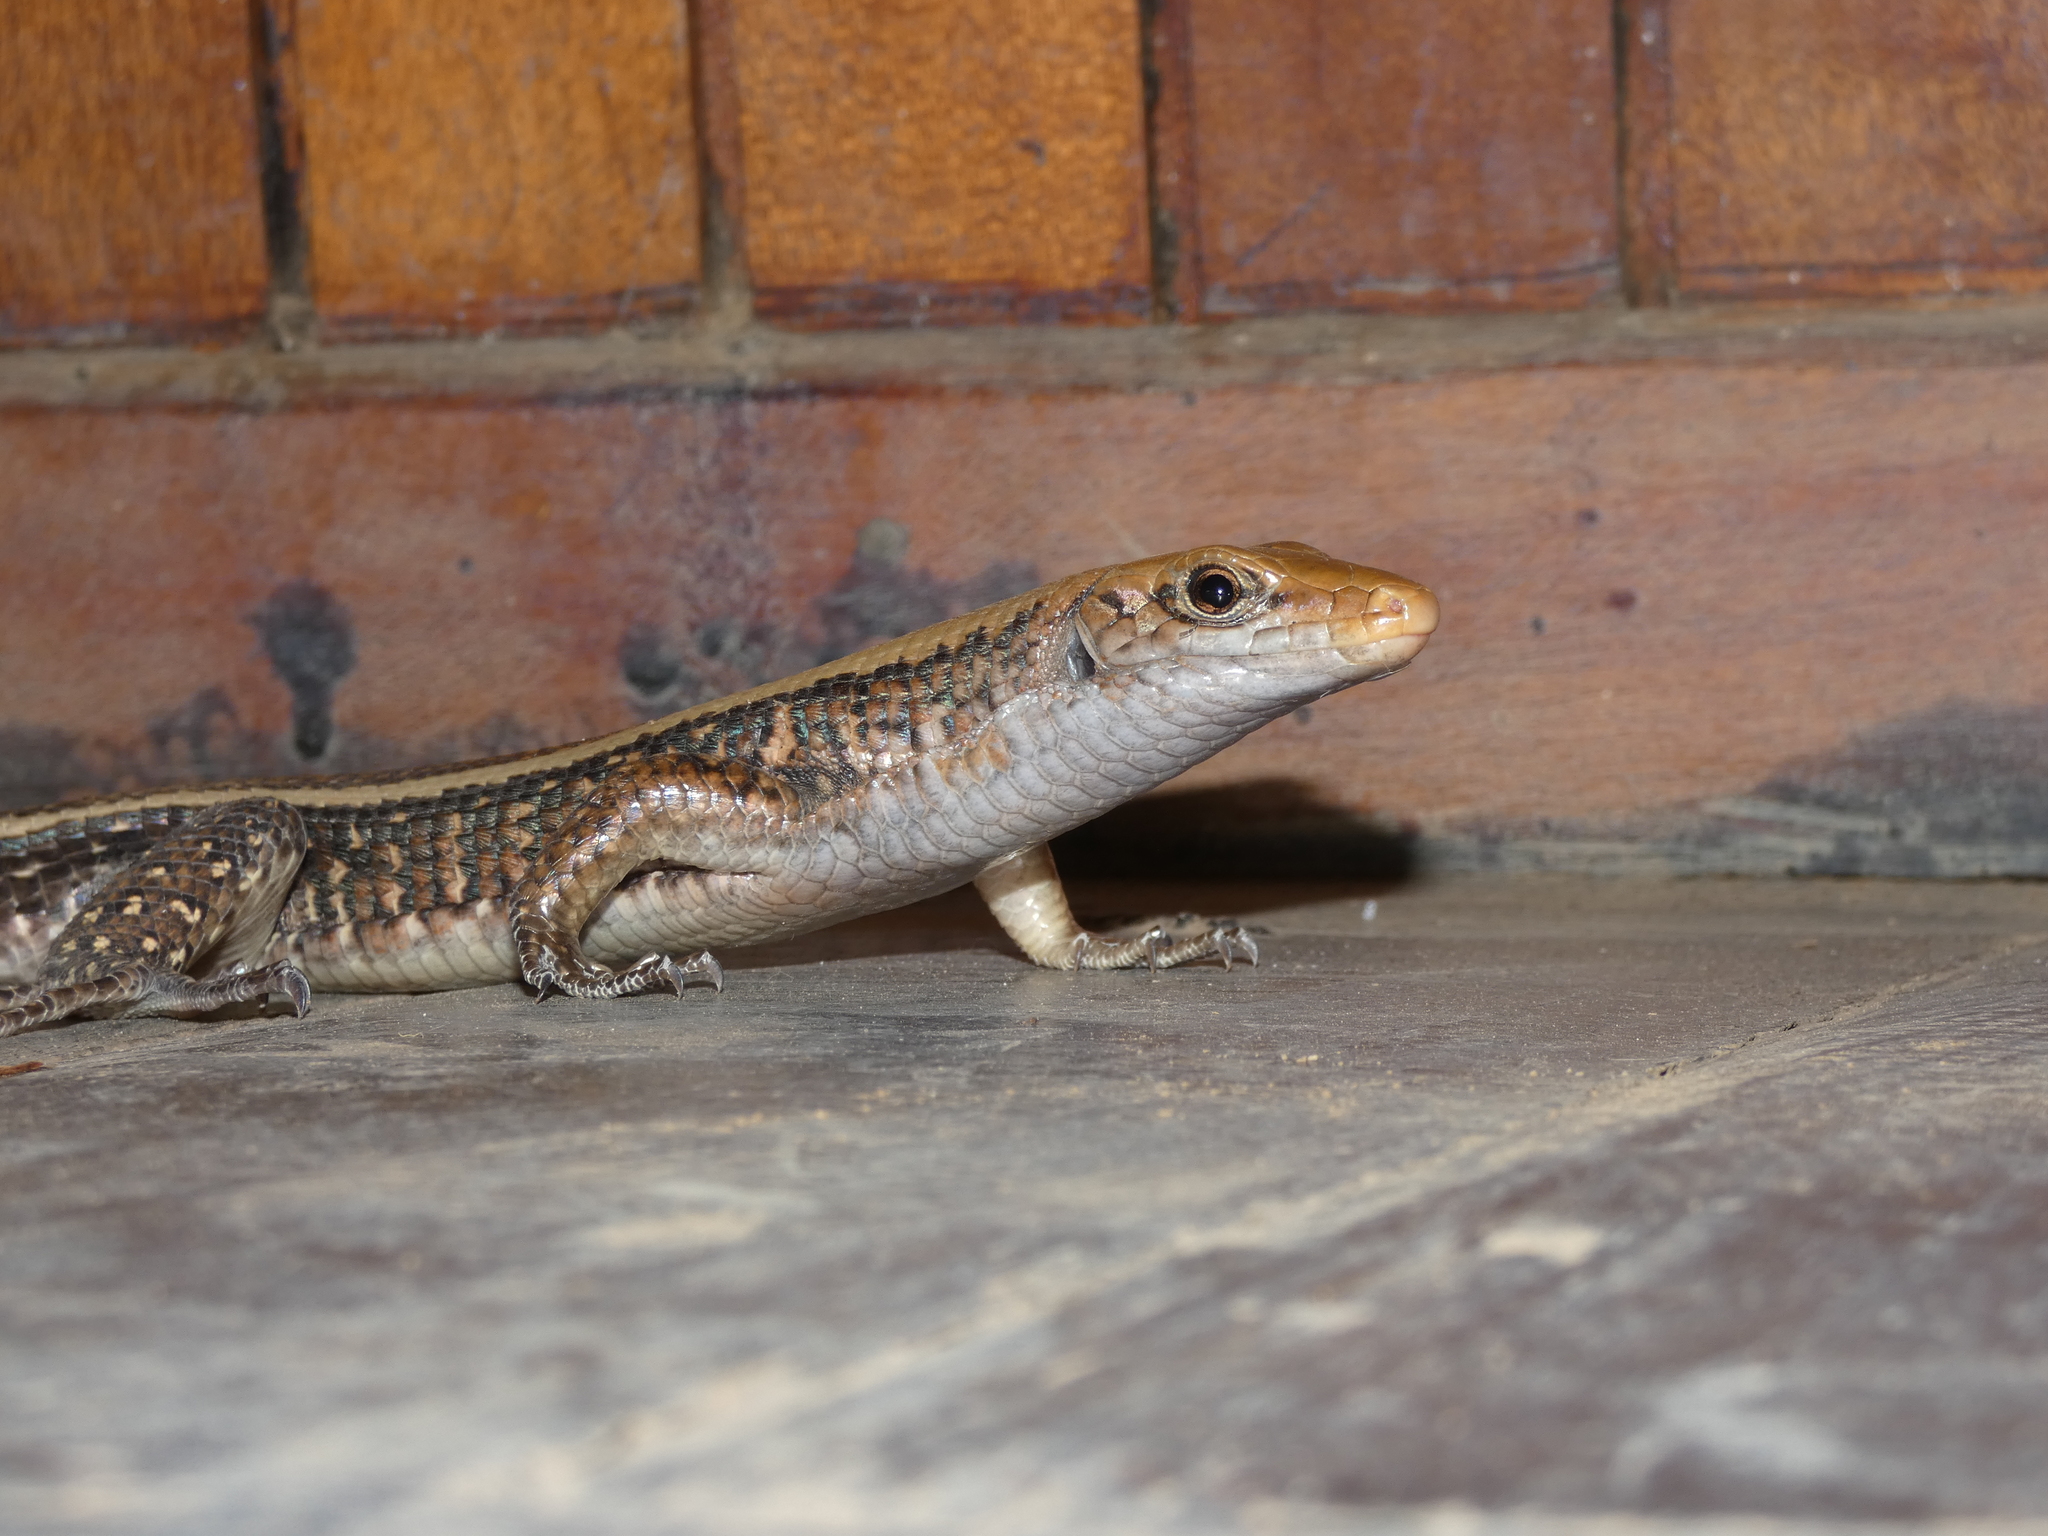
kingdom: Animalia
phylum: Chordata
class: Squamata
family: Gerrhosauridae
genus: Zonosaurus
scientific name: Zonosaurus laticaudatus
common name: Western girdled lizard
